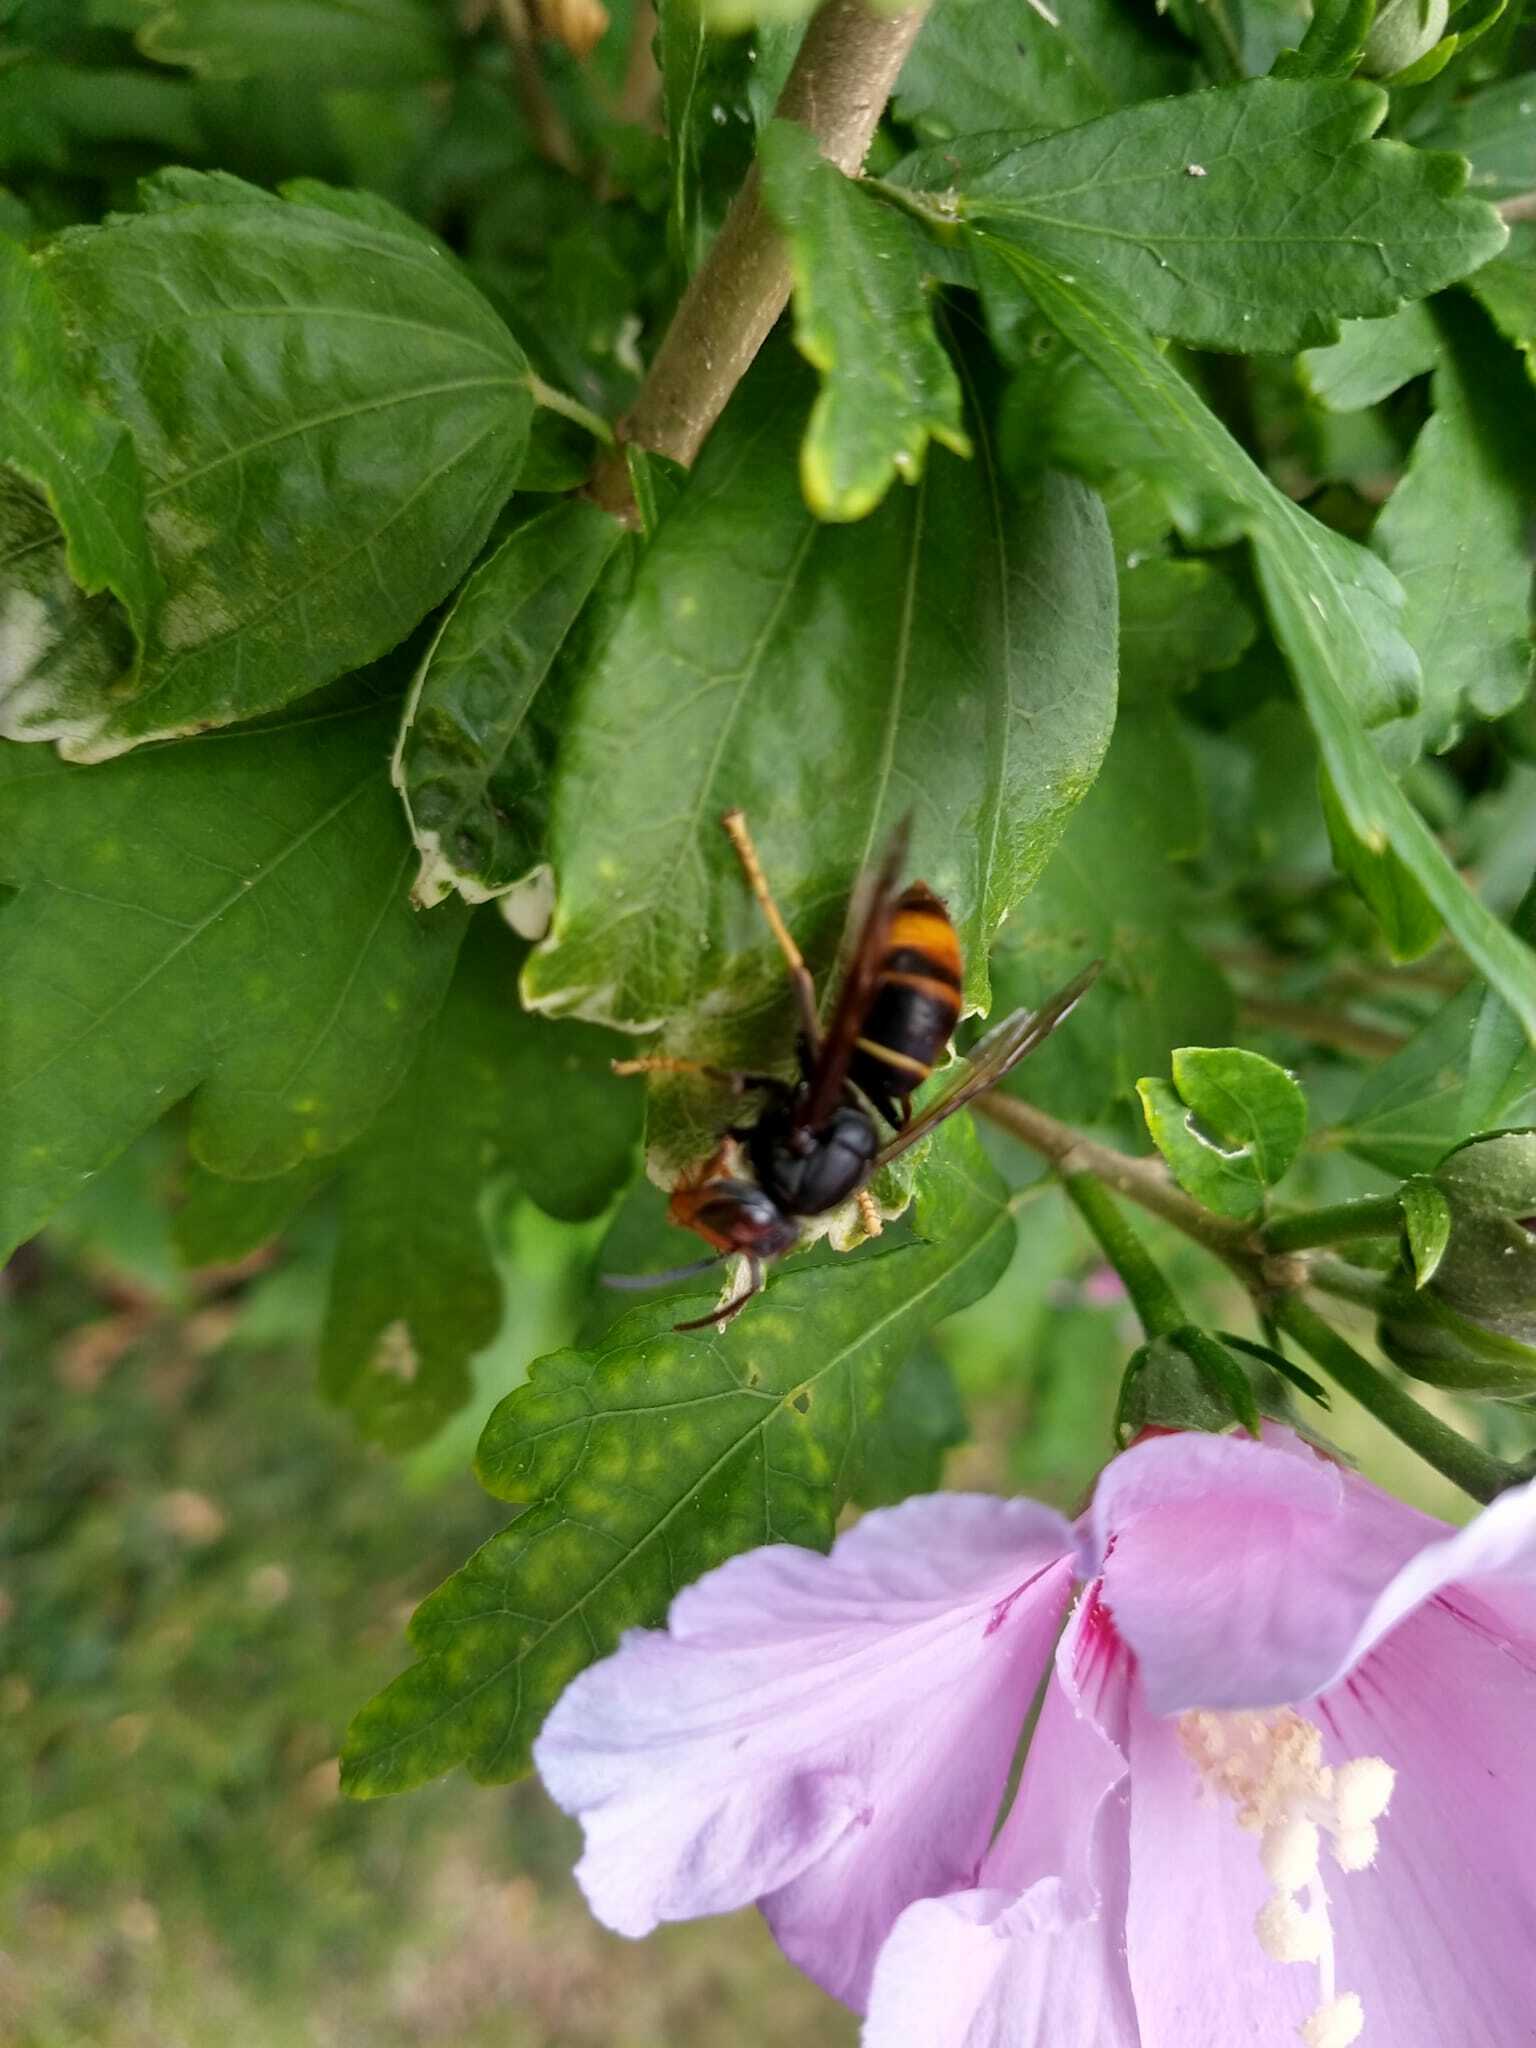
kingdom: Animalia
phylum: Arthropoda
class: Insecta
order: Hymenoptera
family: Vespidae
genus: Vespa
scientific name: Vespa velutina
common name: Asian hornet
